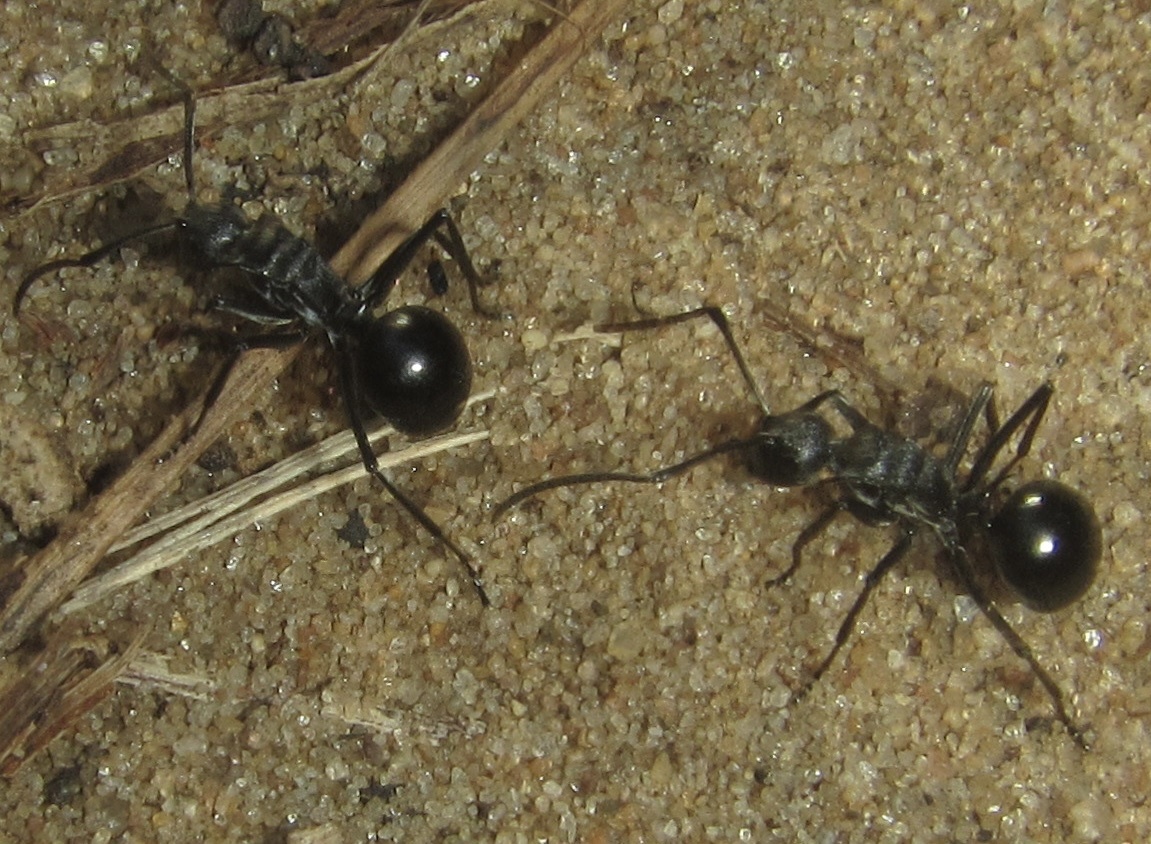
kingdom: Animalia
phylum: Arthropoda
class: Insecta
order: Hymenoptera
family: Formicidae
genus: Polyrhachis
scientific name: Polyrhachis gagates
